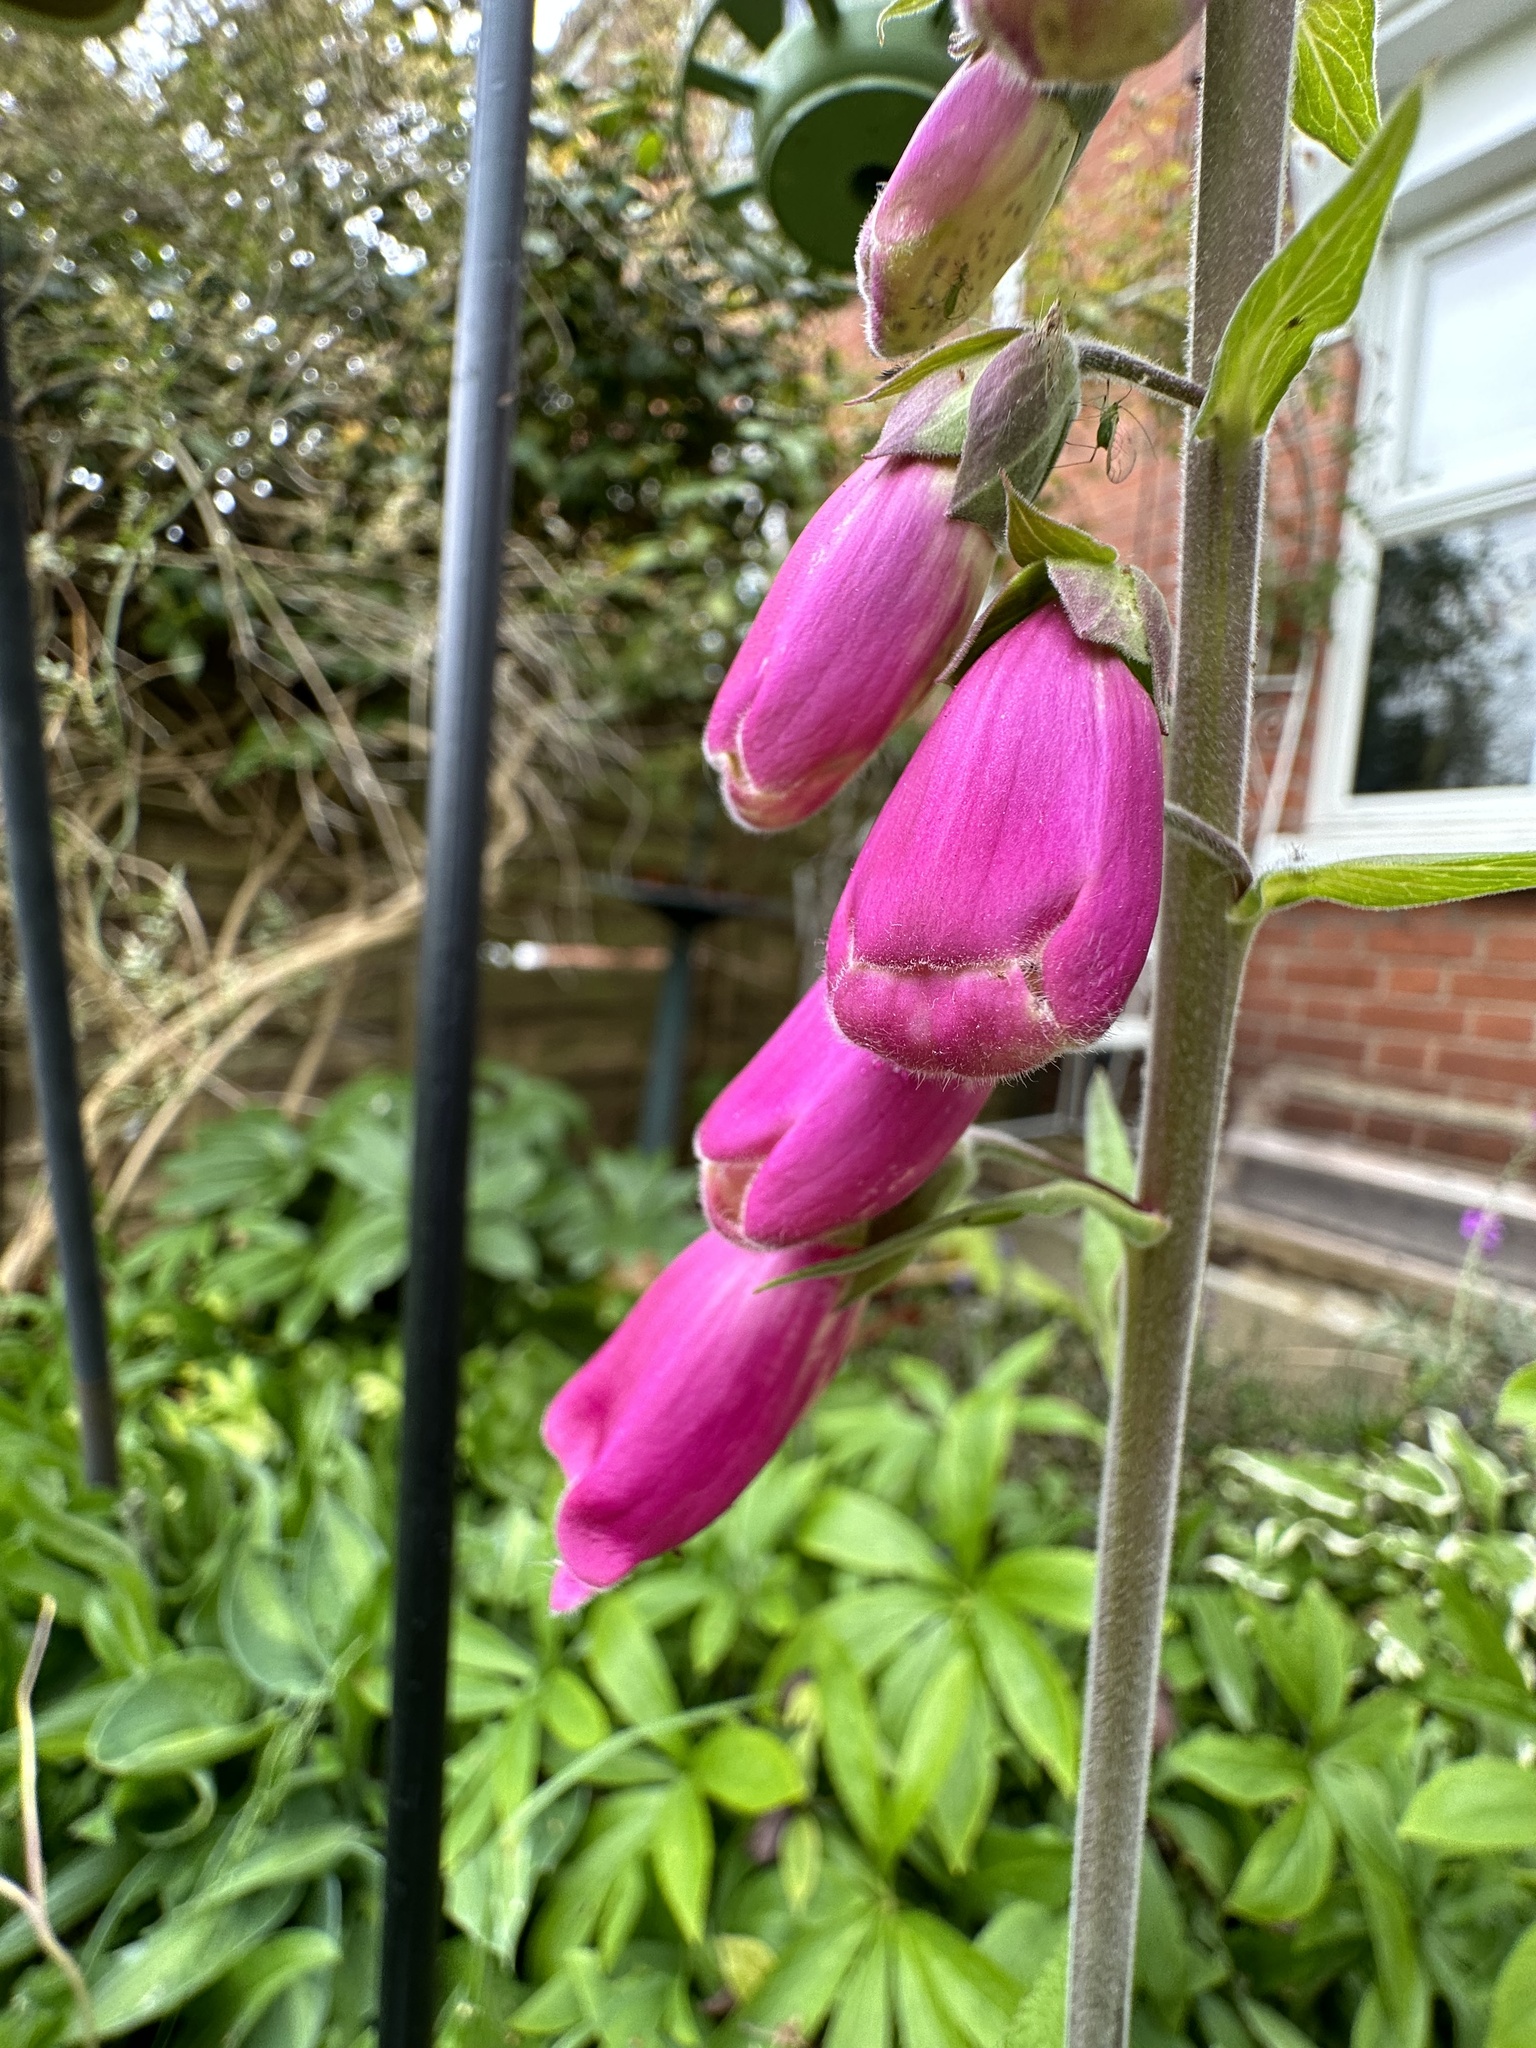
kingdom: Plantae
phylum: Tracheophyta
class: Magnoliopsida
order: Lamiales
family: Plantaginaceae
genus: Digitalis
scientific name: Digitalis purpurea
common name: Foxglove
